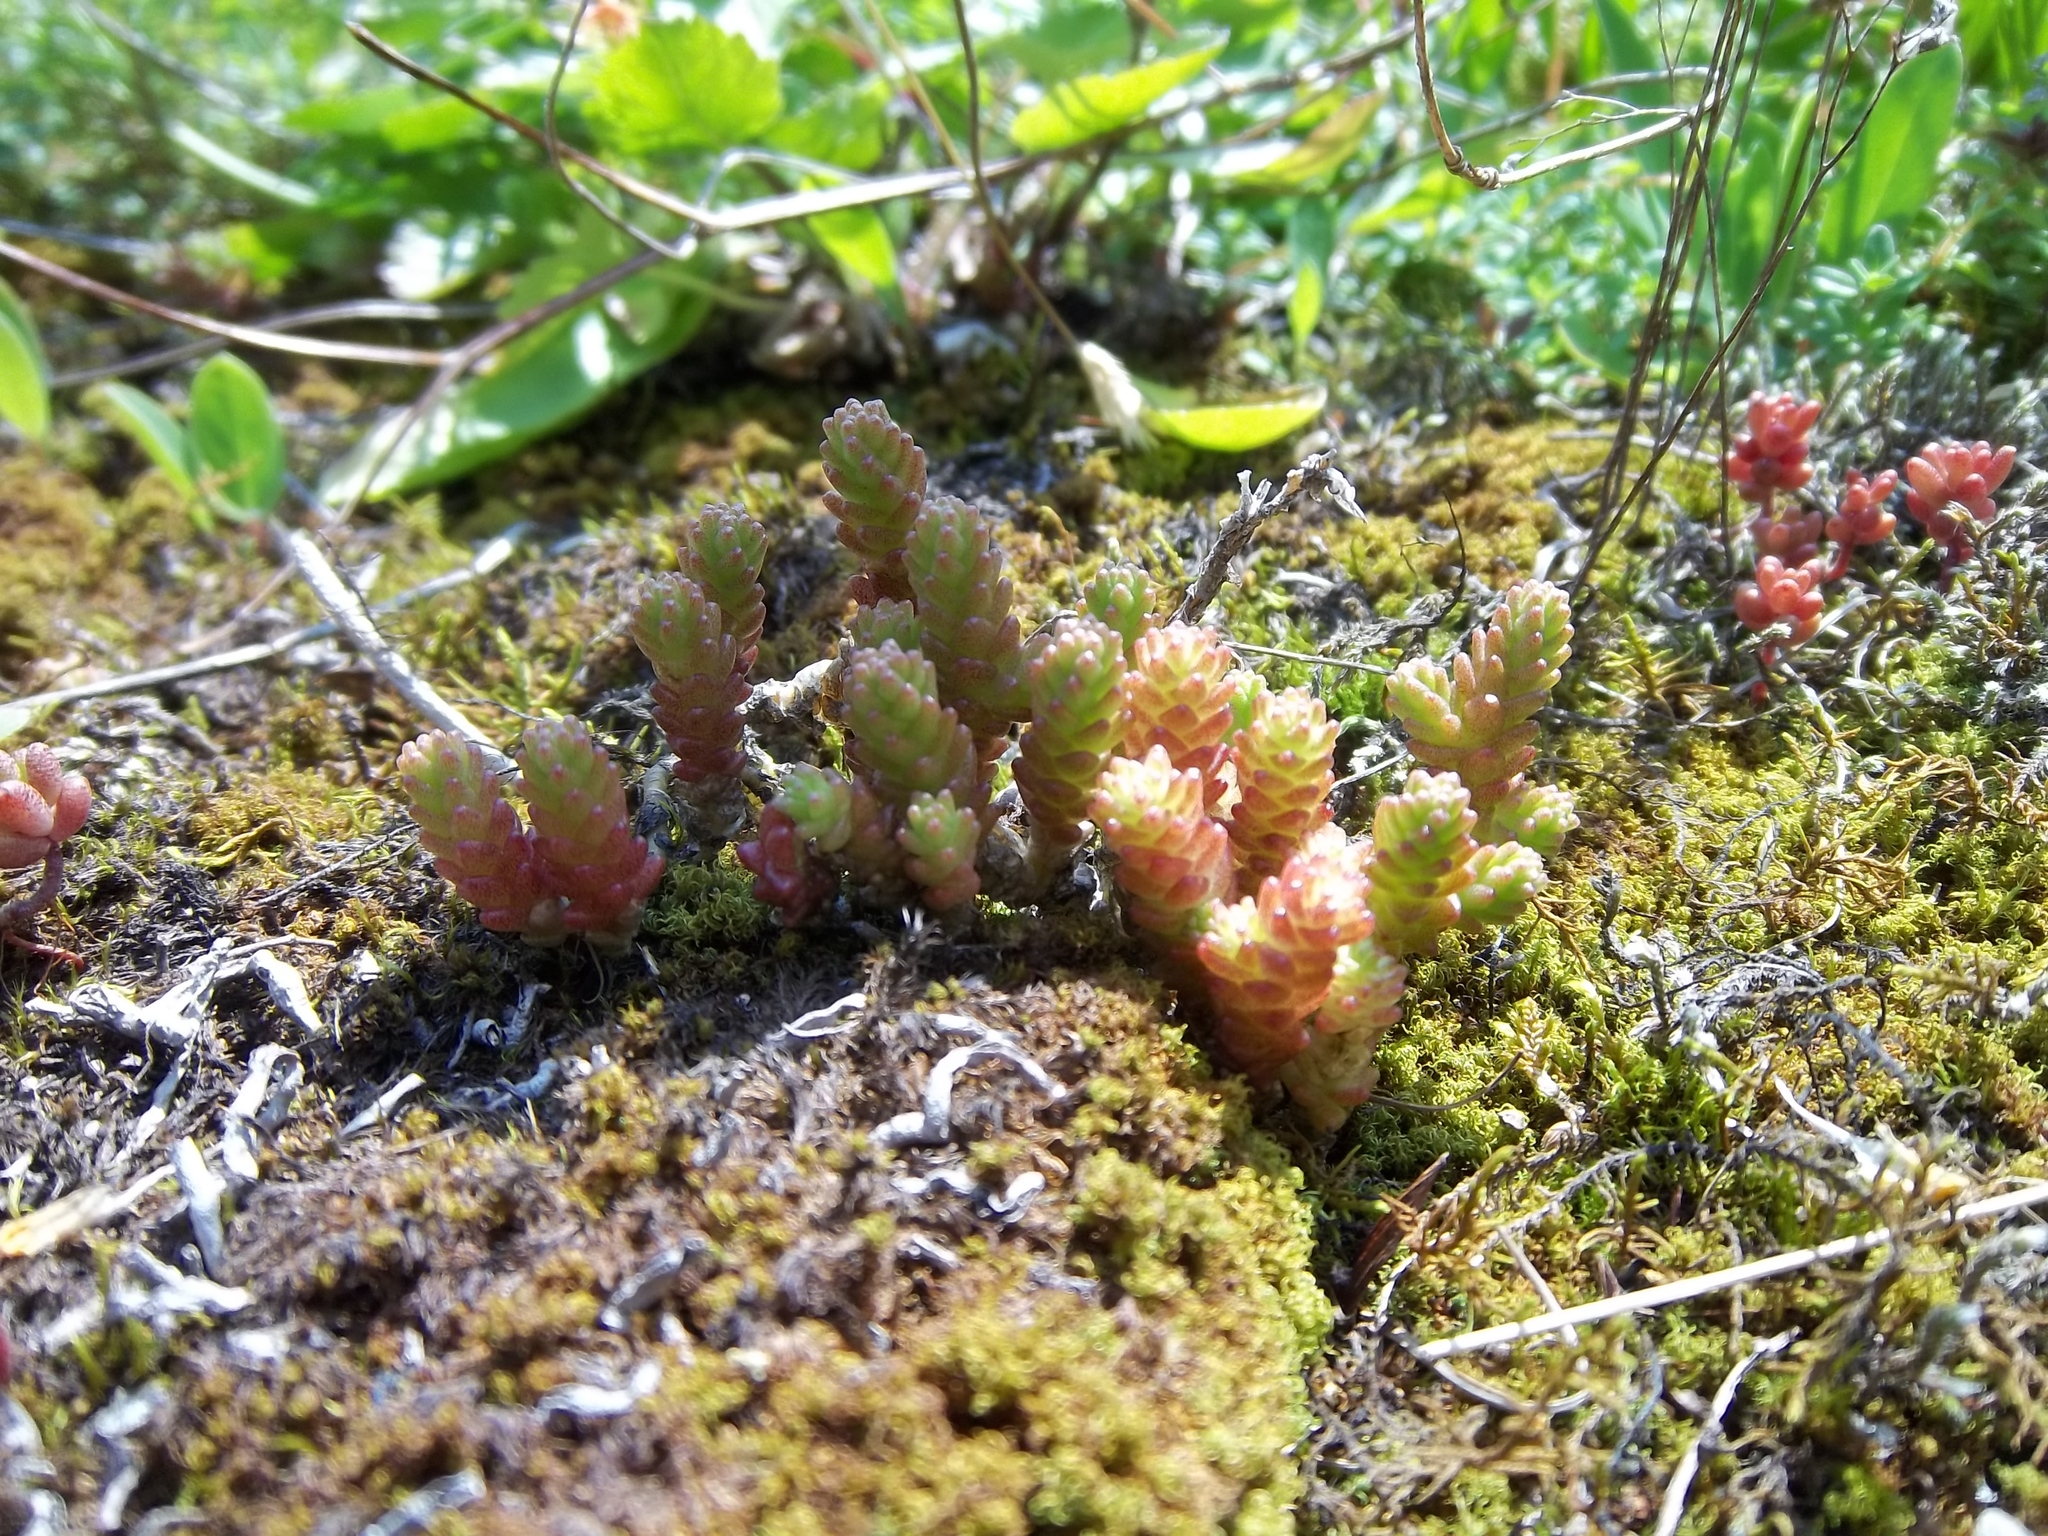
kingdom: Plantae
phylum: Tracheophyta
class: Magnoliopsida
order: Saxifragales
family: Crassulaceae
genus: Sedum
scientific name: Sedum acre
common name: Biting stonecrop
